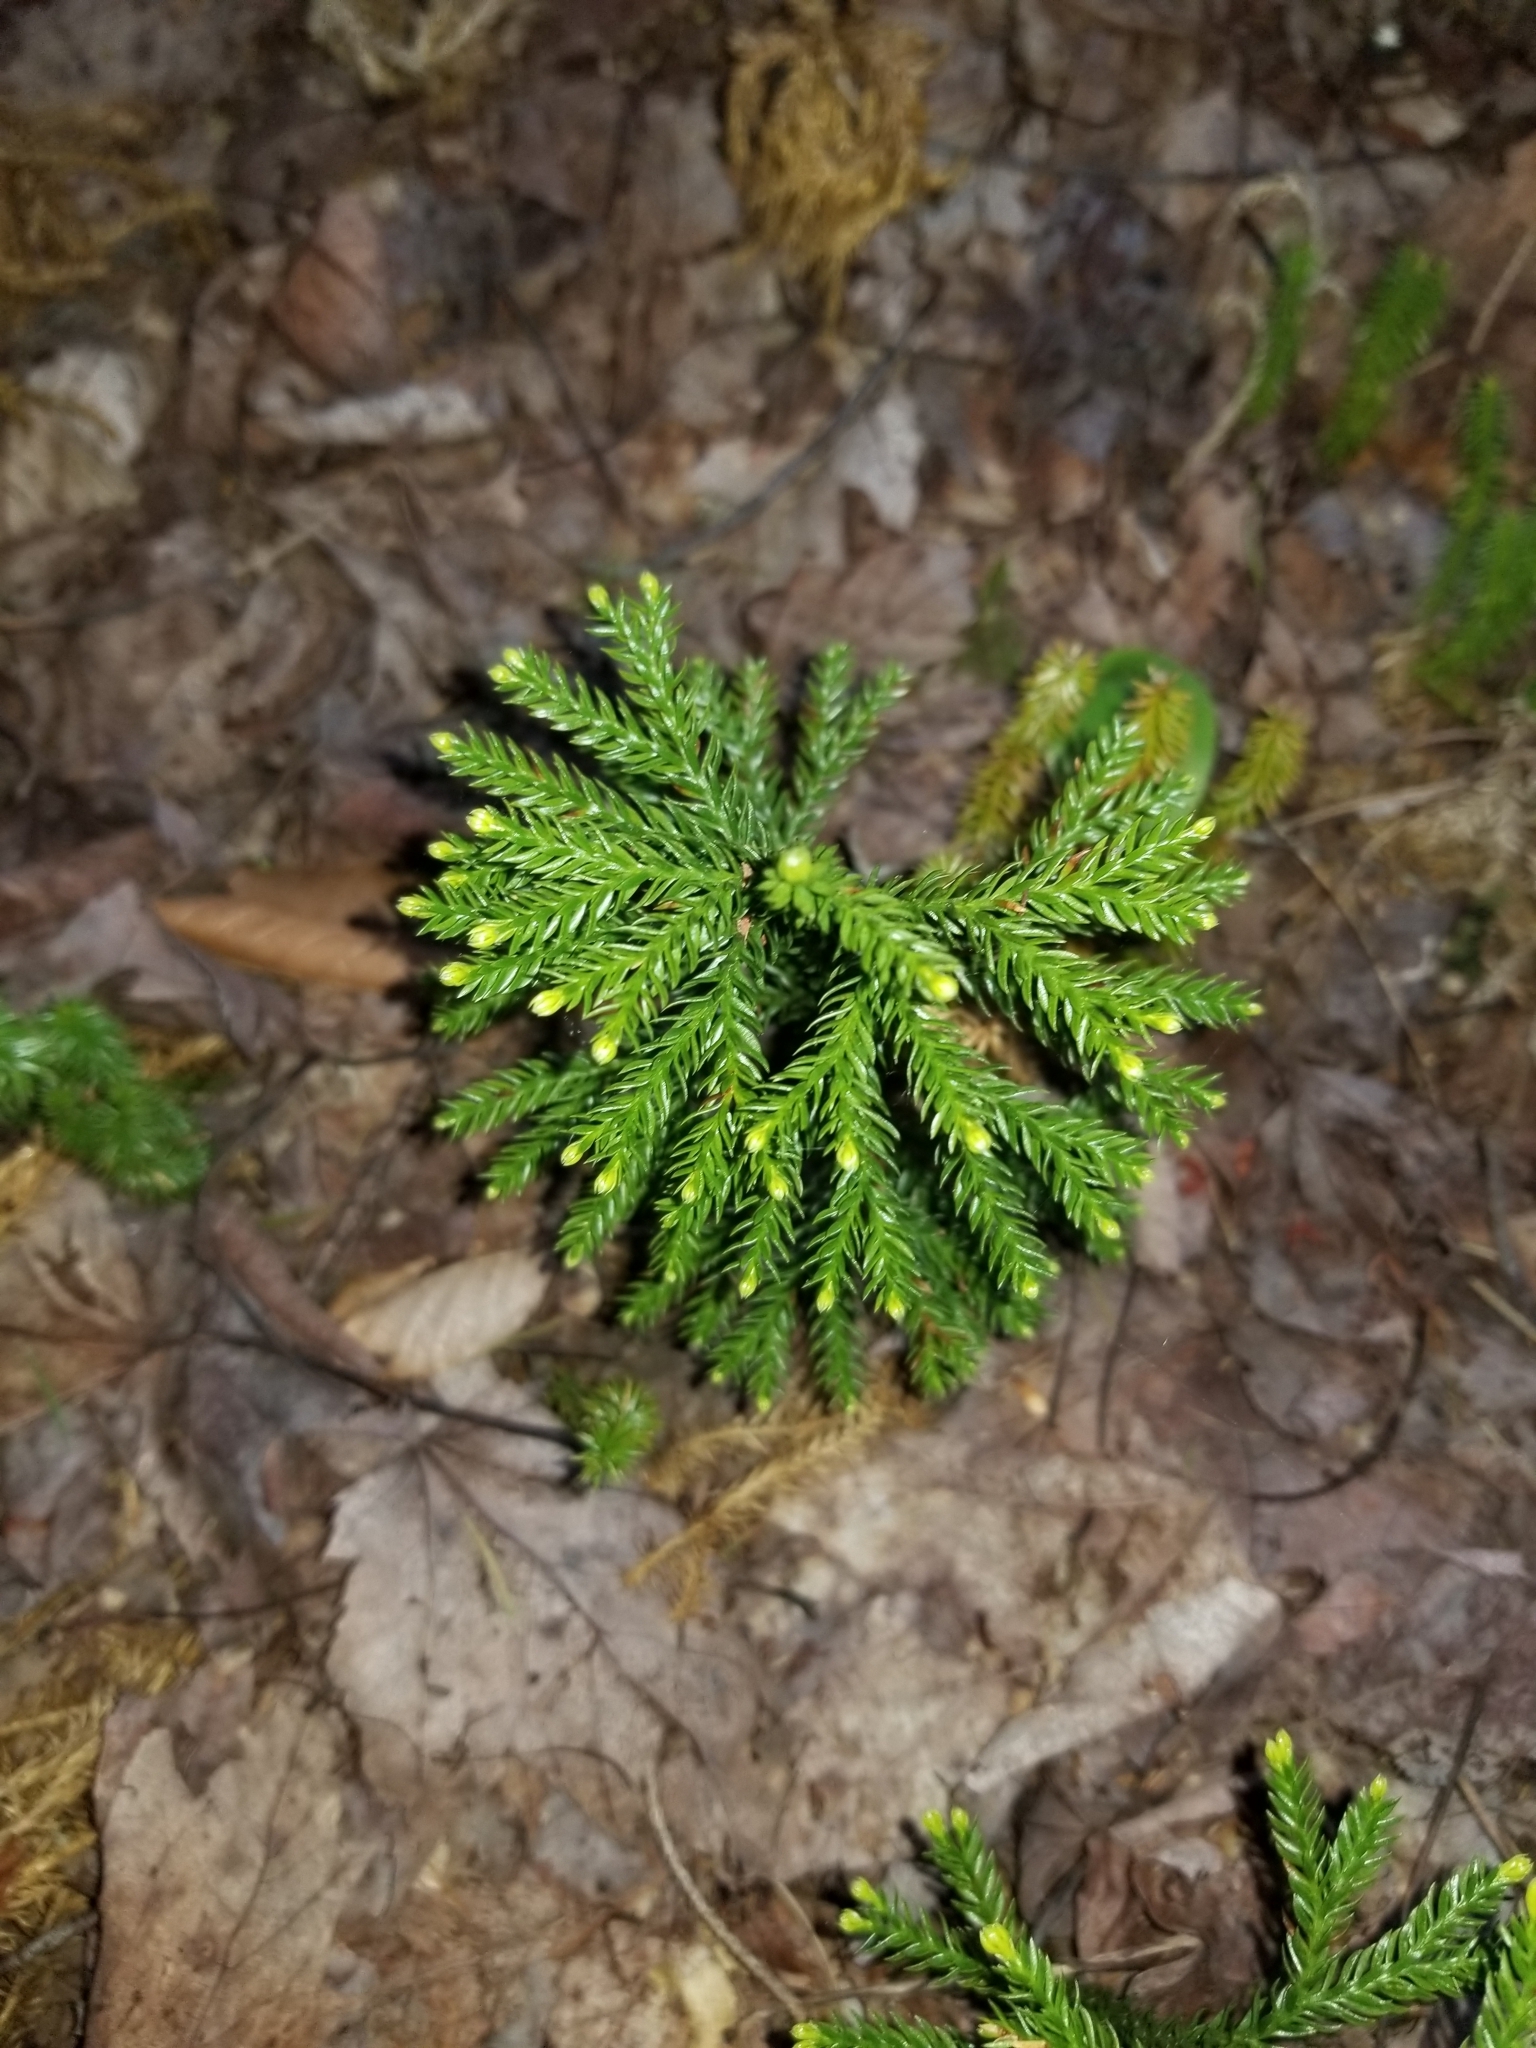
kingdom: Plantae
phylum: Tracheophyta
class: Lycopodiopsida
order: Lycopodiales
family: Lycopodiaceae
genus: Dendrolycopodium
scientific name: Dendrolycopodium obscurum
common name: Common ground-pine
